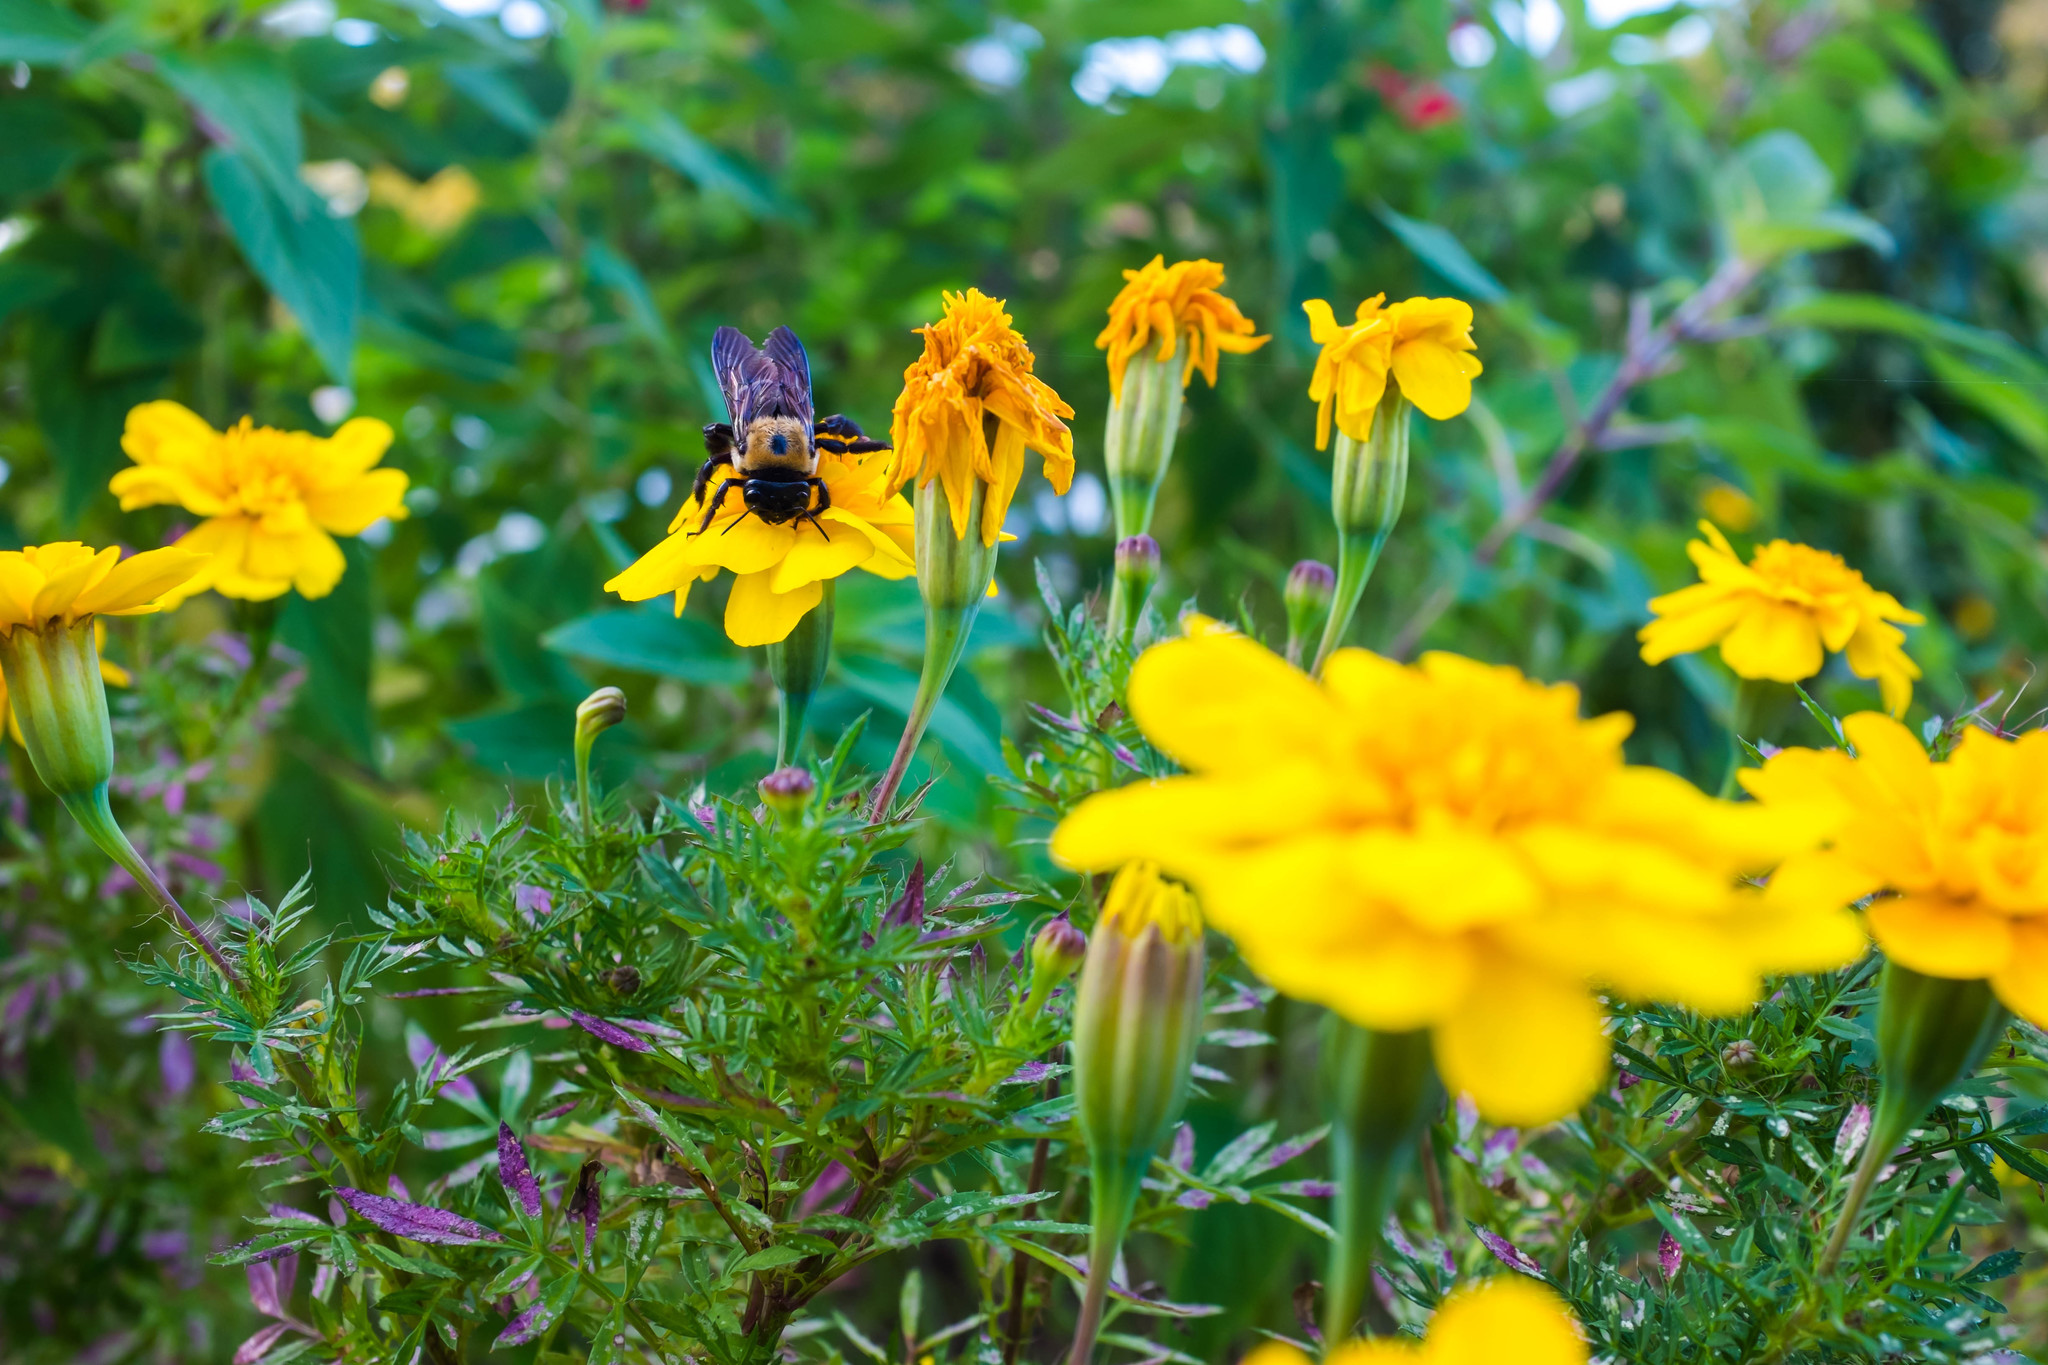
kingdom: Animalia
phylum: Arthropoda
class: Insecta
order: Hymenoptera
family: Apidae
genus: Xylocopa
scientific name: Xylocopa virginica
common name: Carpenter bee
